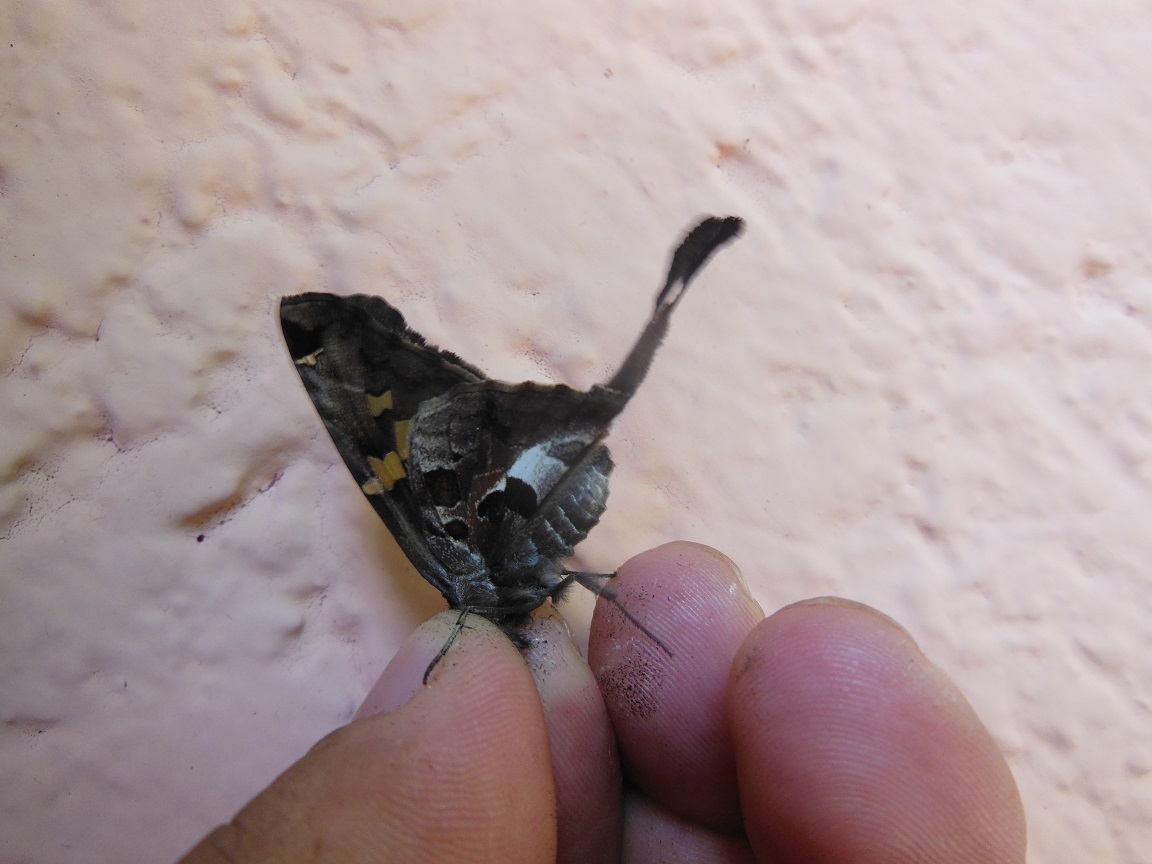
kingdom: Animalia
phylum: Arthropoda
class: Insecta
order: Lepidoptera
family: Hesperiidae
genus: Chioides
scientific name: Chioides zilpa
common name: Zilpa longtail
